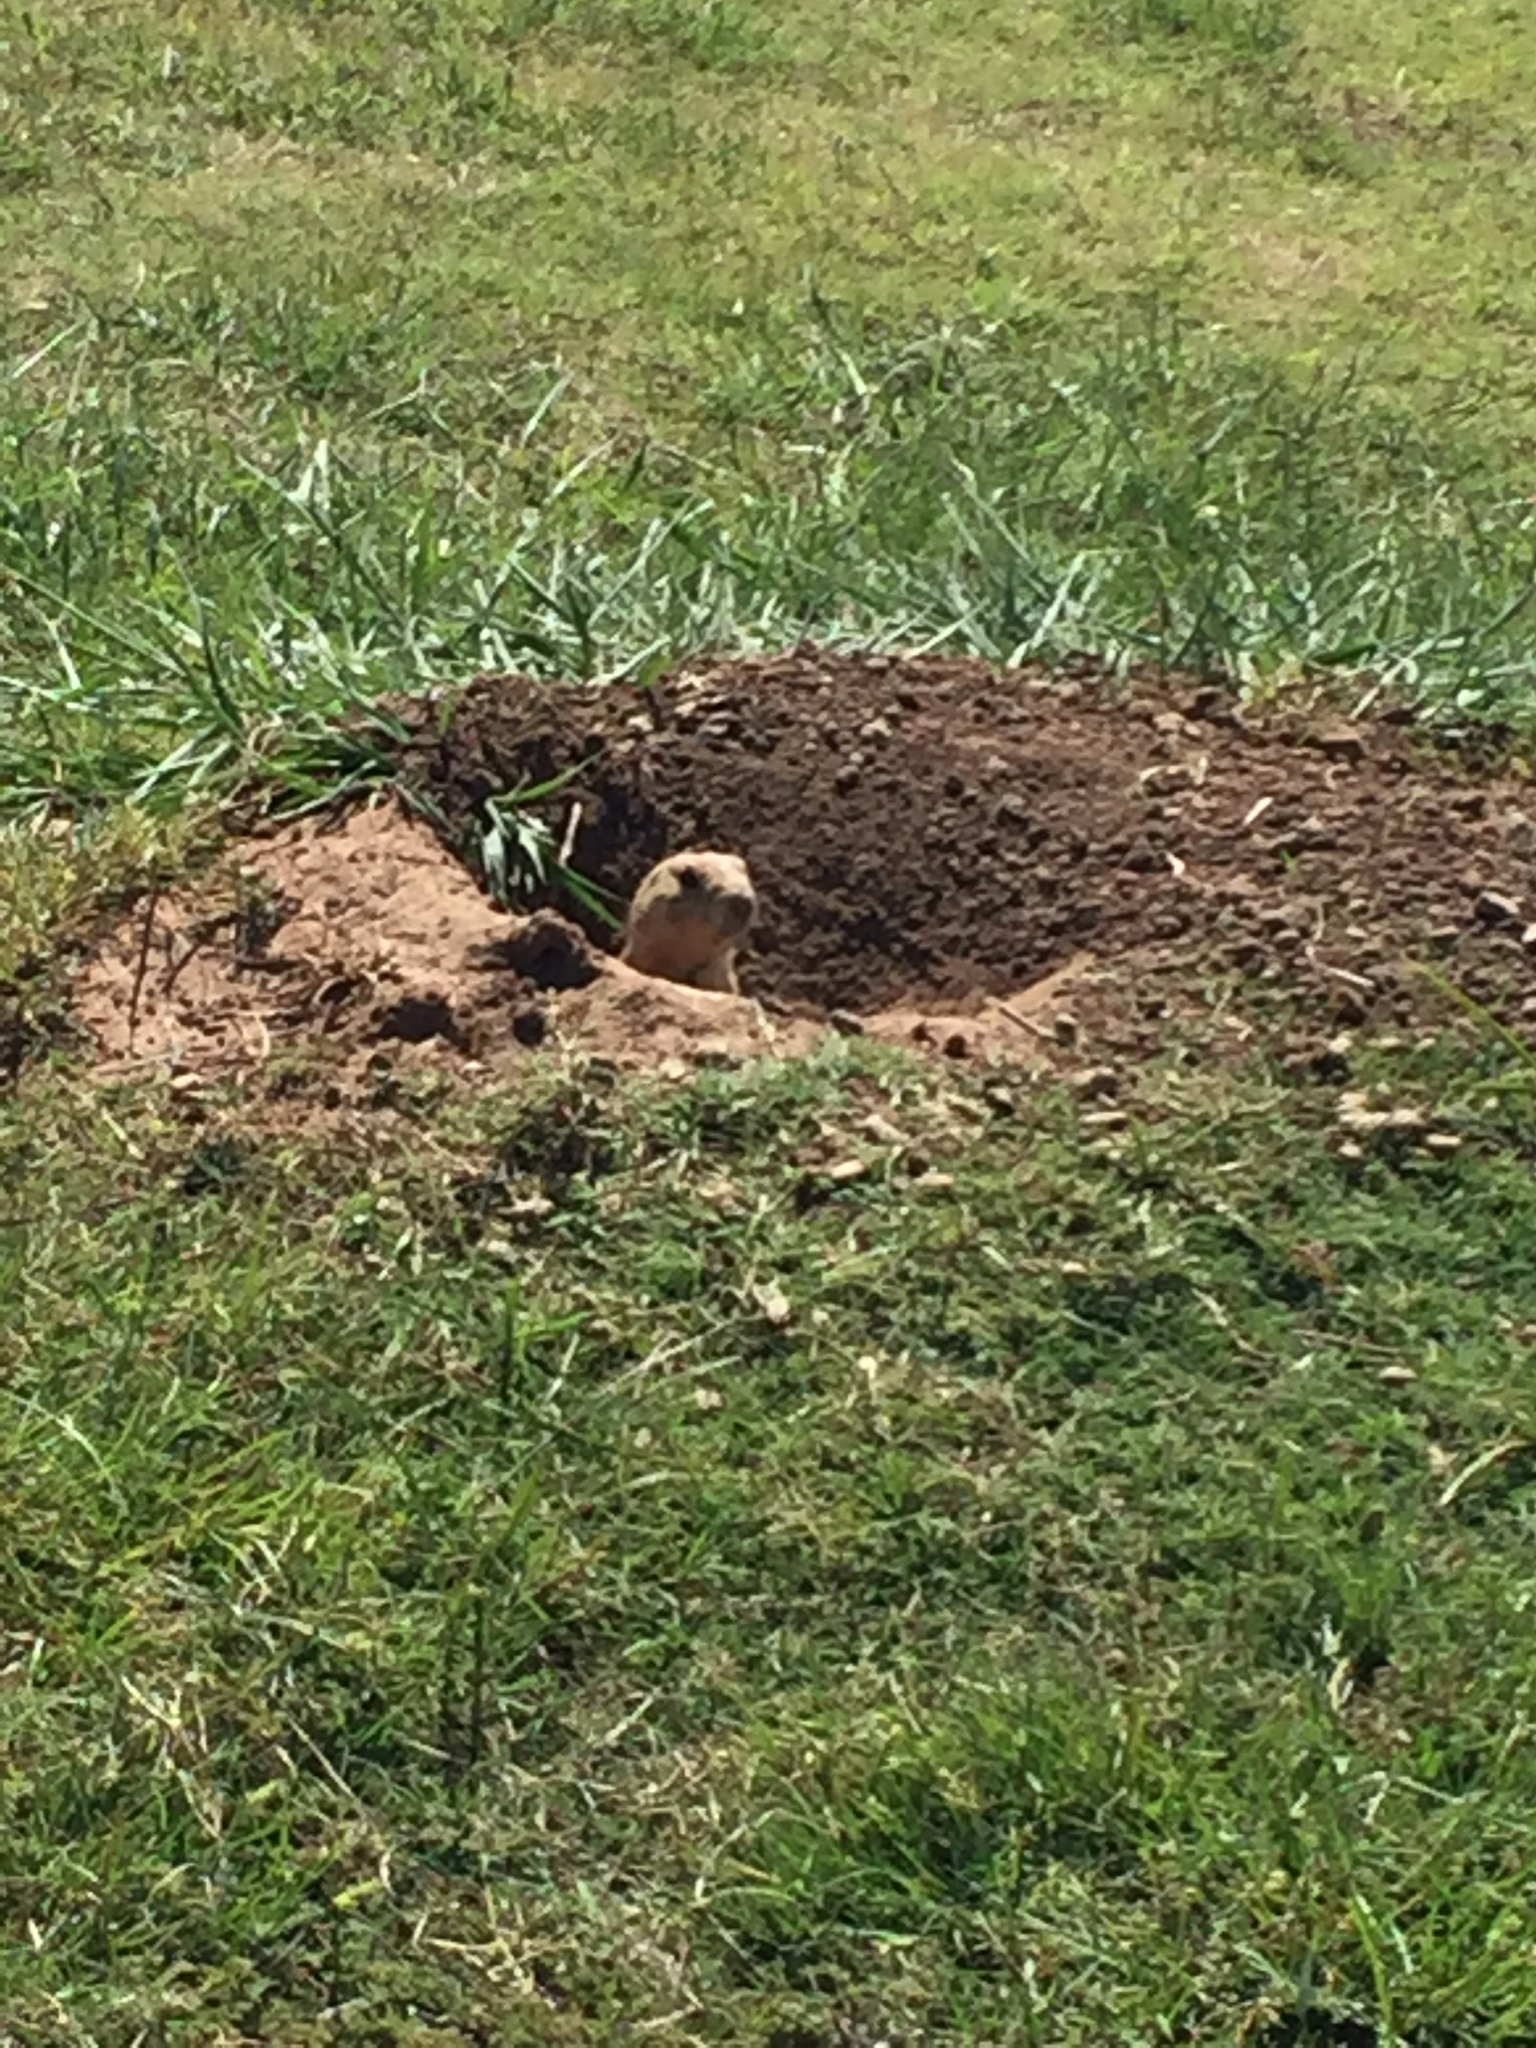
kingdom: Animalia
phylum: Chordata
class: Mammalia
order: Rodentia
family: Sciuridae
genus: Cynomys
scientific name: Cynomys ludovicianus
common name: Black-tailed prairie dog
